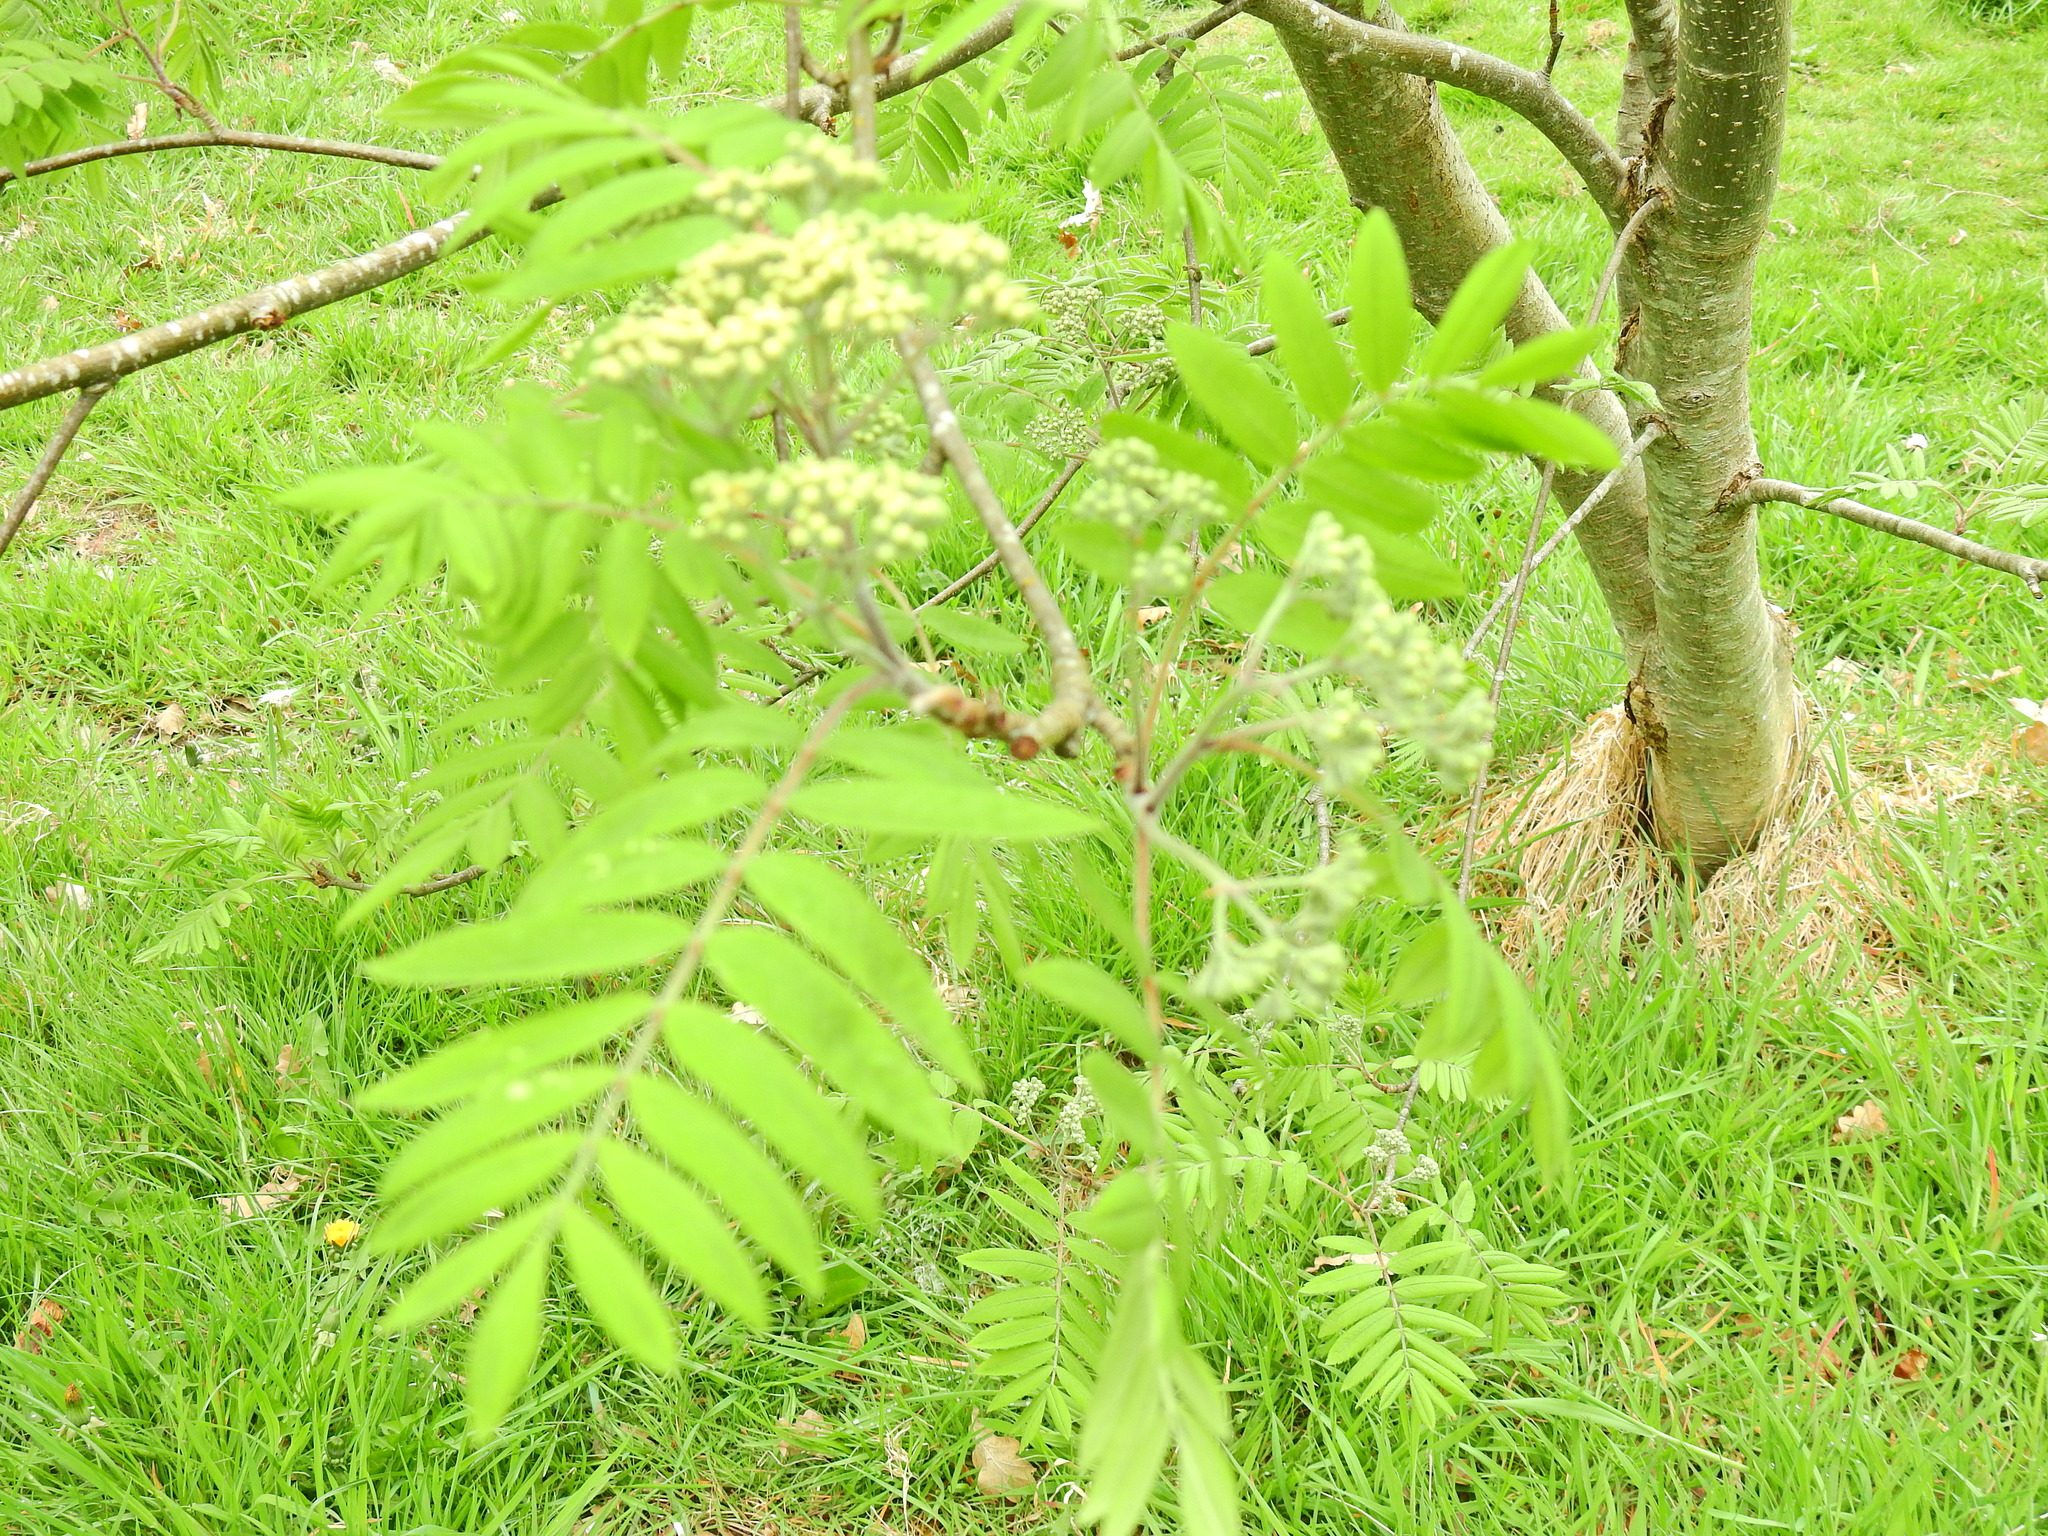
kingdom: Plantae
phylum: Tracheophyta
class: Magnoliopsida
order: Rosales
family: Rosaceae
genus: Sorbus
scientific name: Sorbus aucuparia
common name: Rowan
